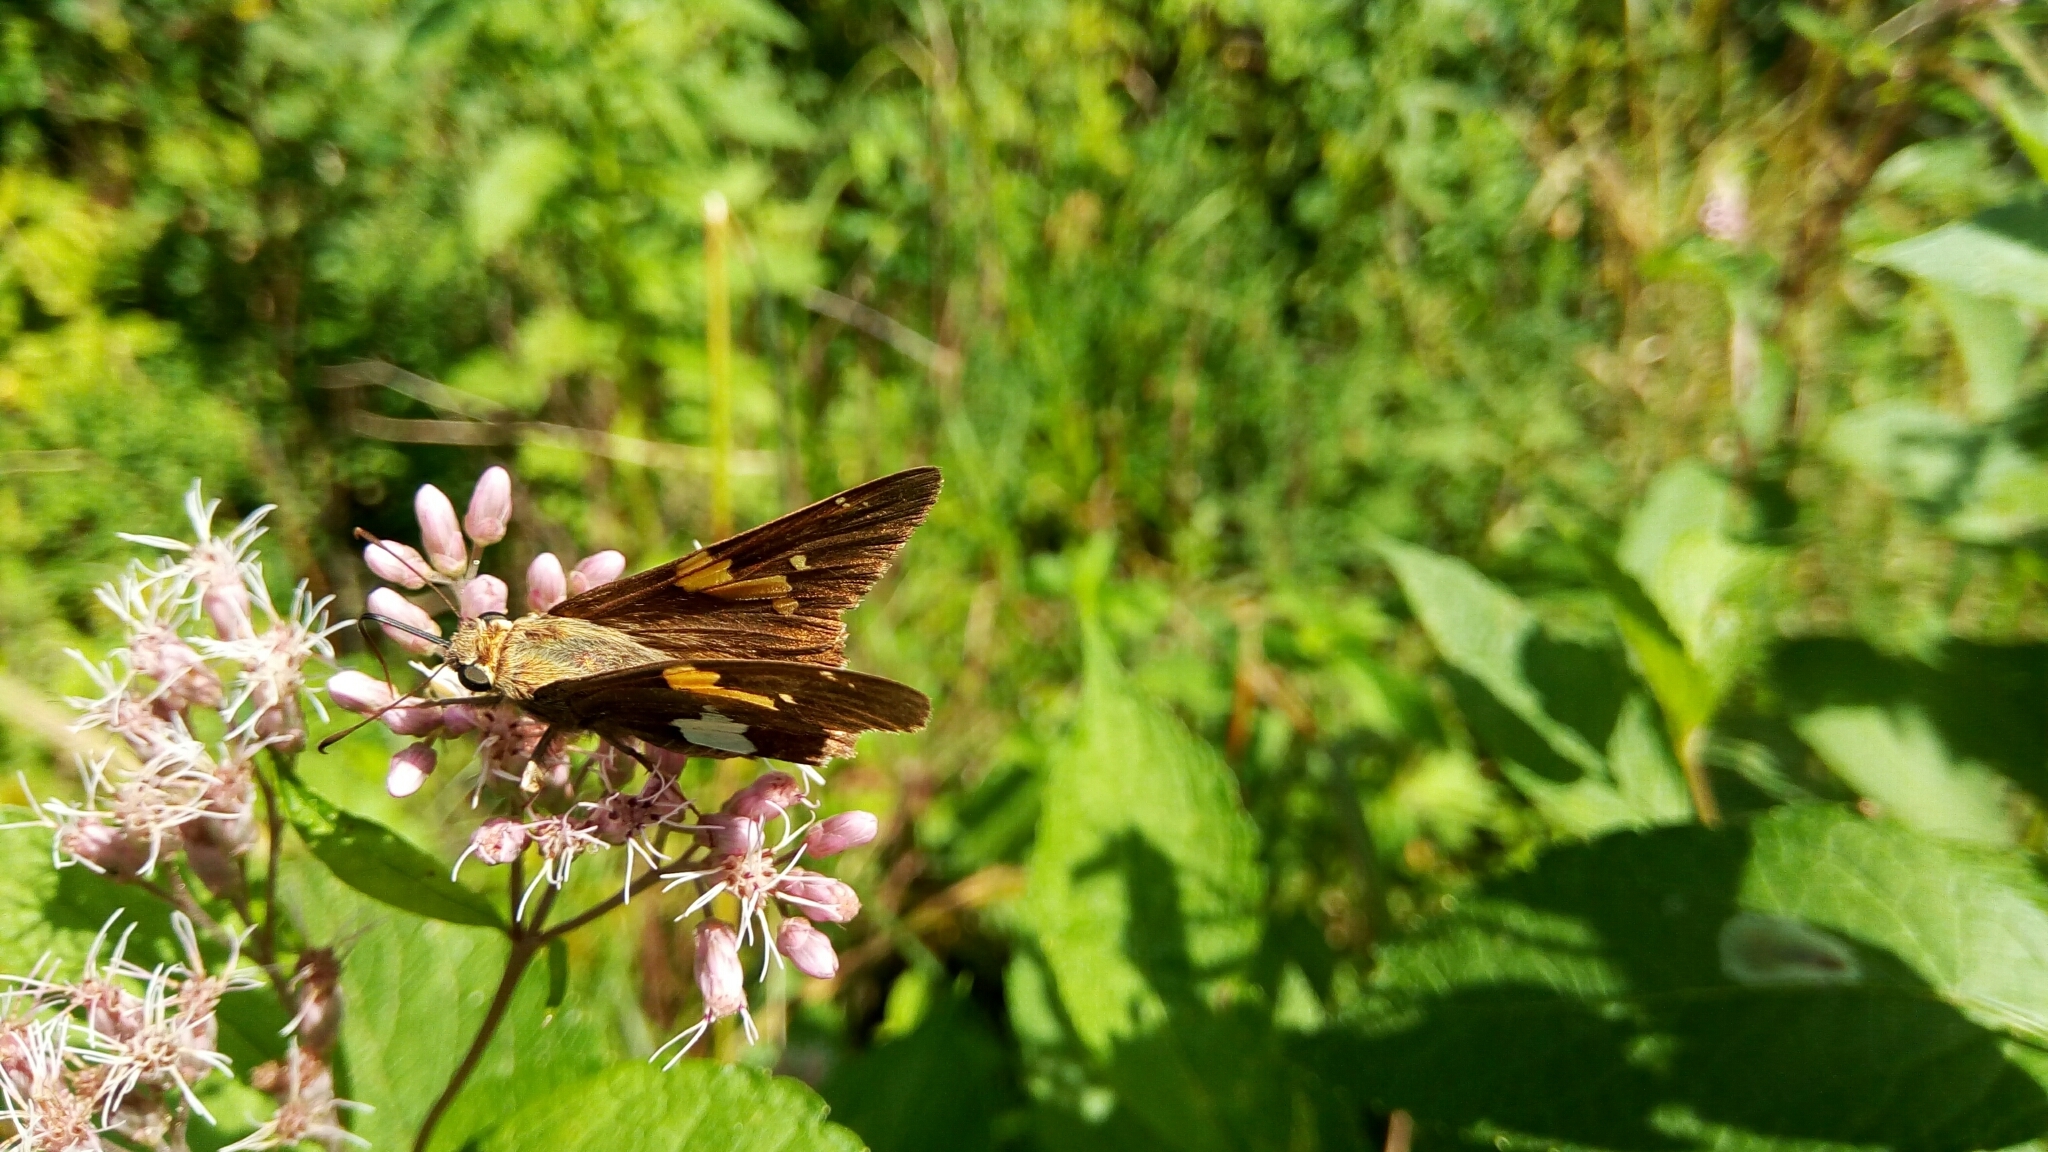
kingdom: Animalia
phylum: Arthropoda
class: Insecta
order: Lepidoptera
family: Hesperiidae
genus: Epargyreus
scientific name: Epargyreus clarus
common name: Silver-spotted skipper
